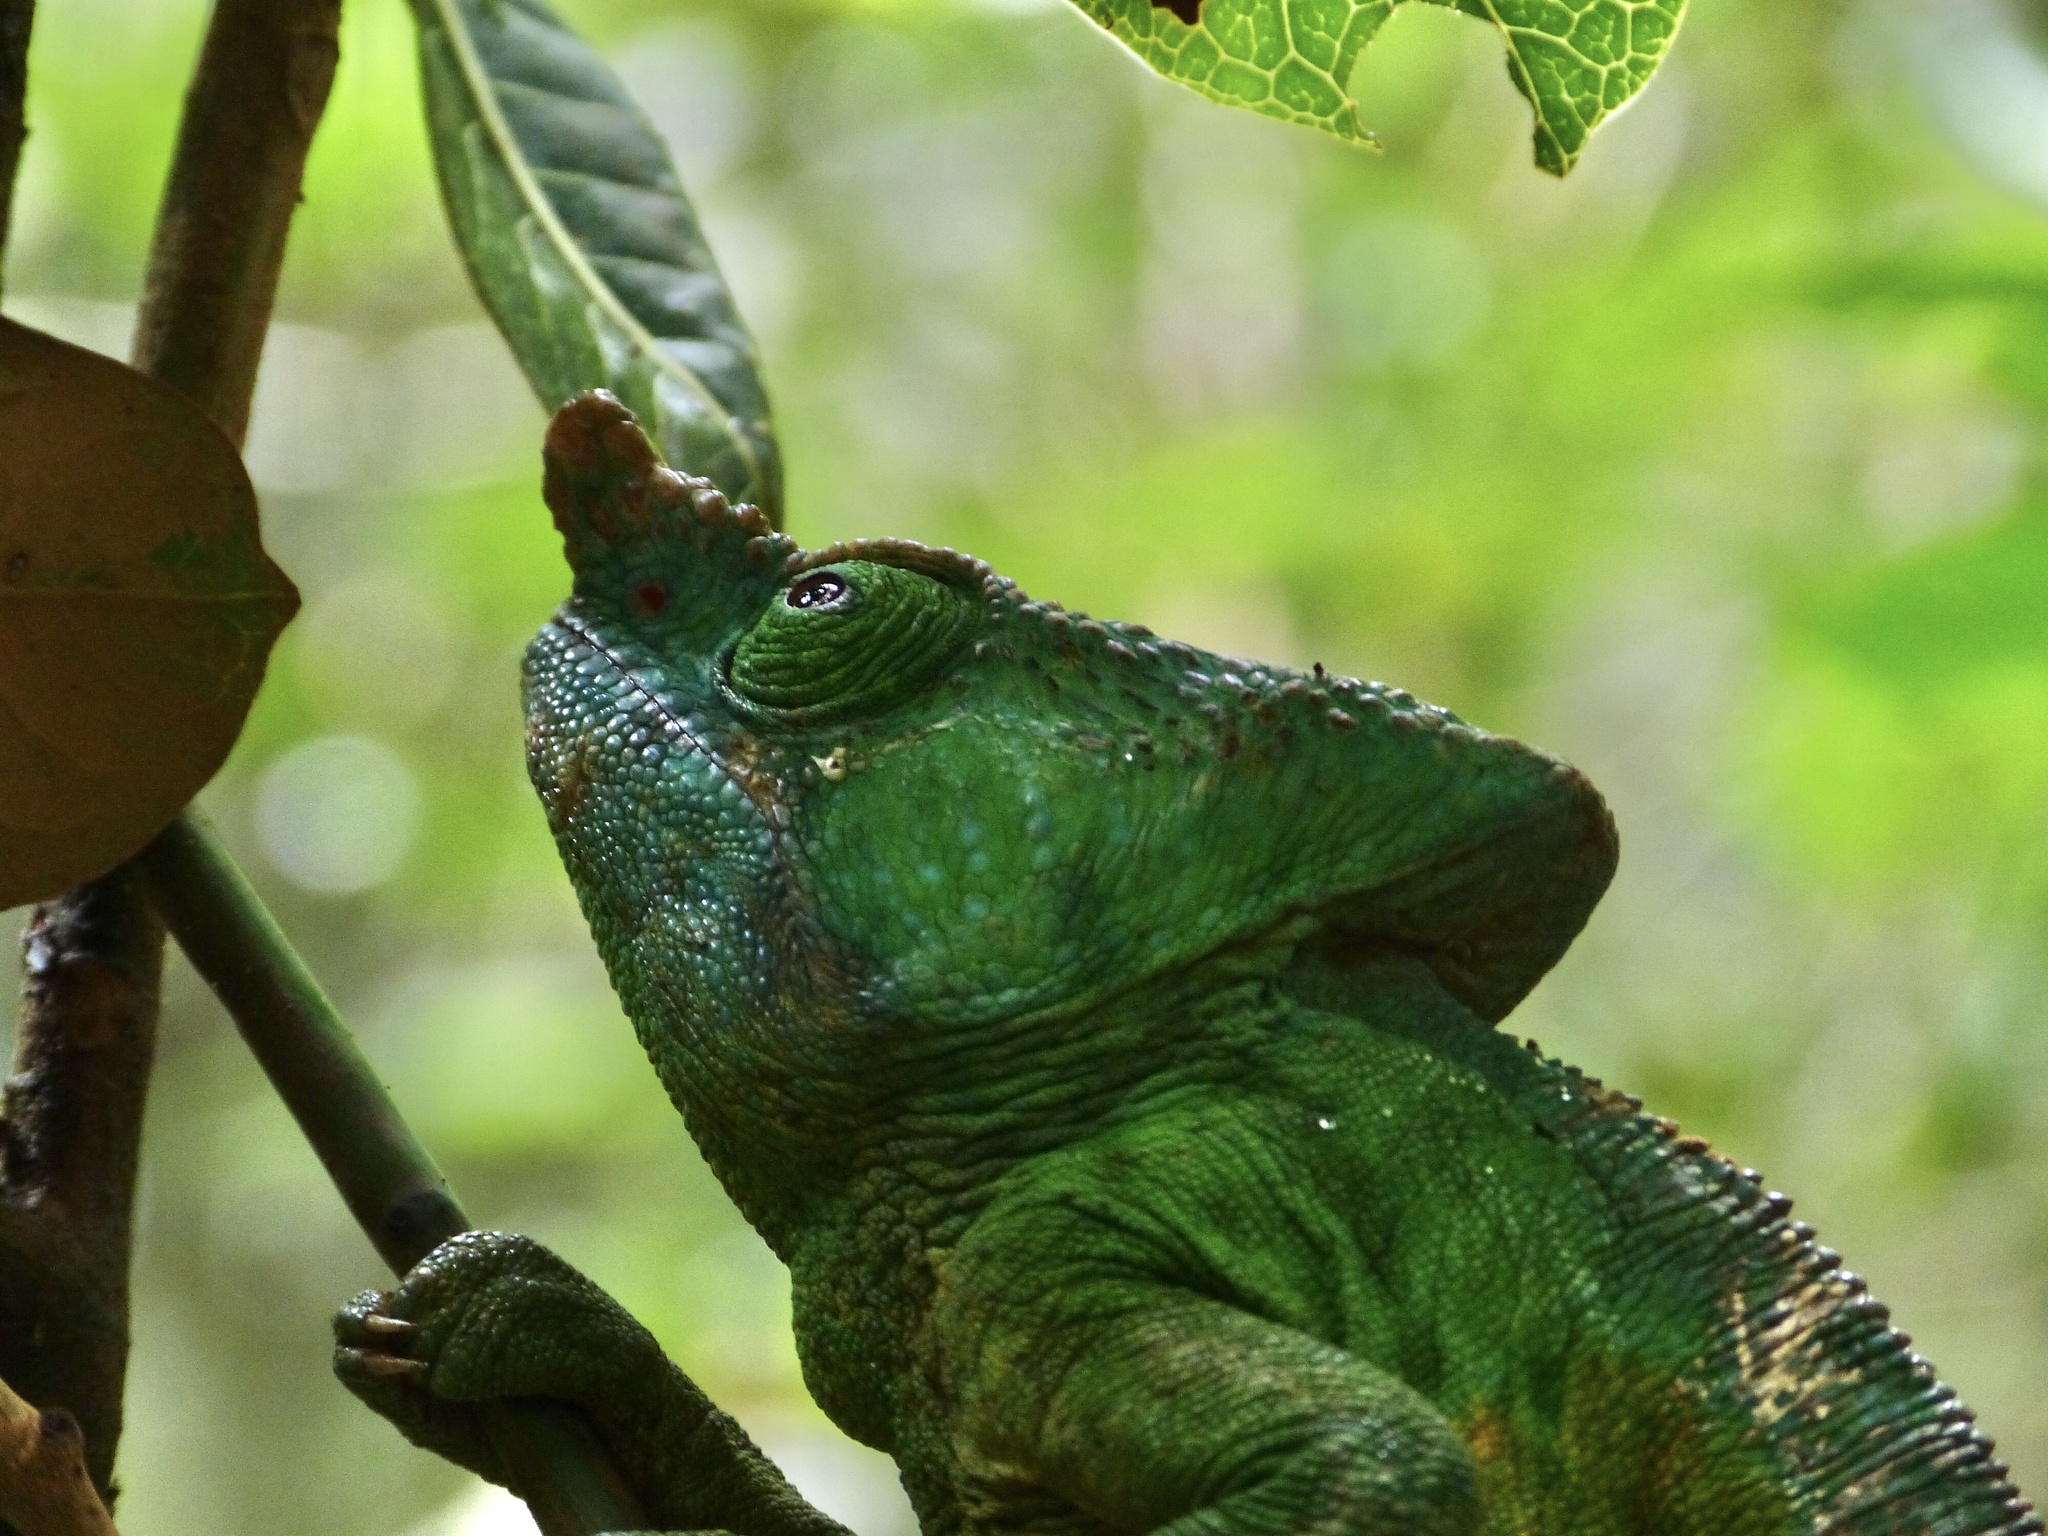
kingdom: Animalia
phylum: Chordata
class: Squamata
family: Chamaeleonidae
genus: Calumma
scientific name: Calumma parsonii
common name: Parson's chameleon
